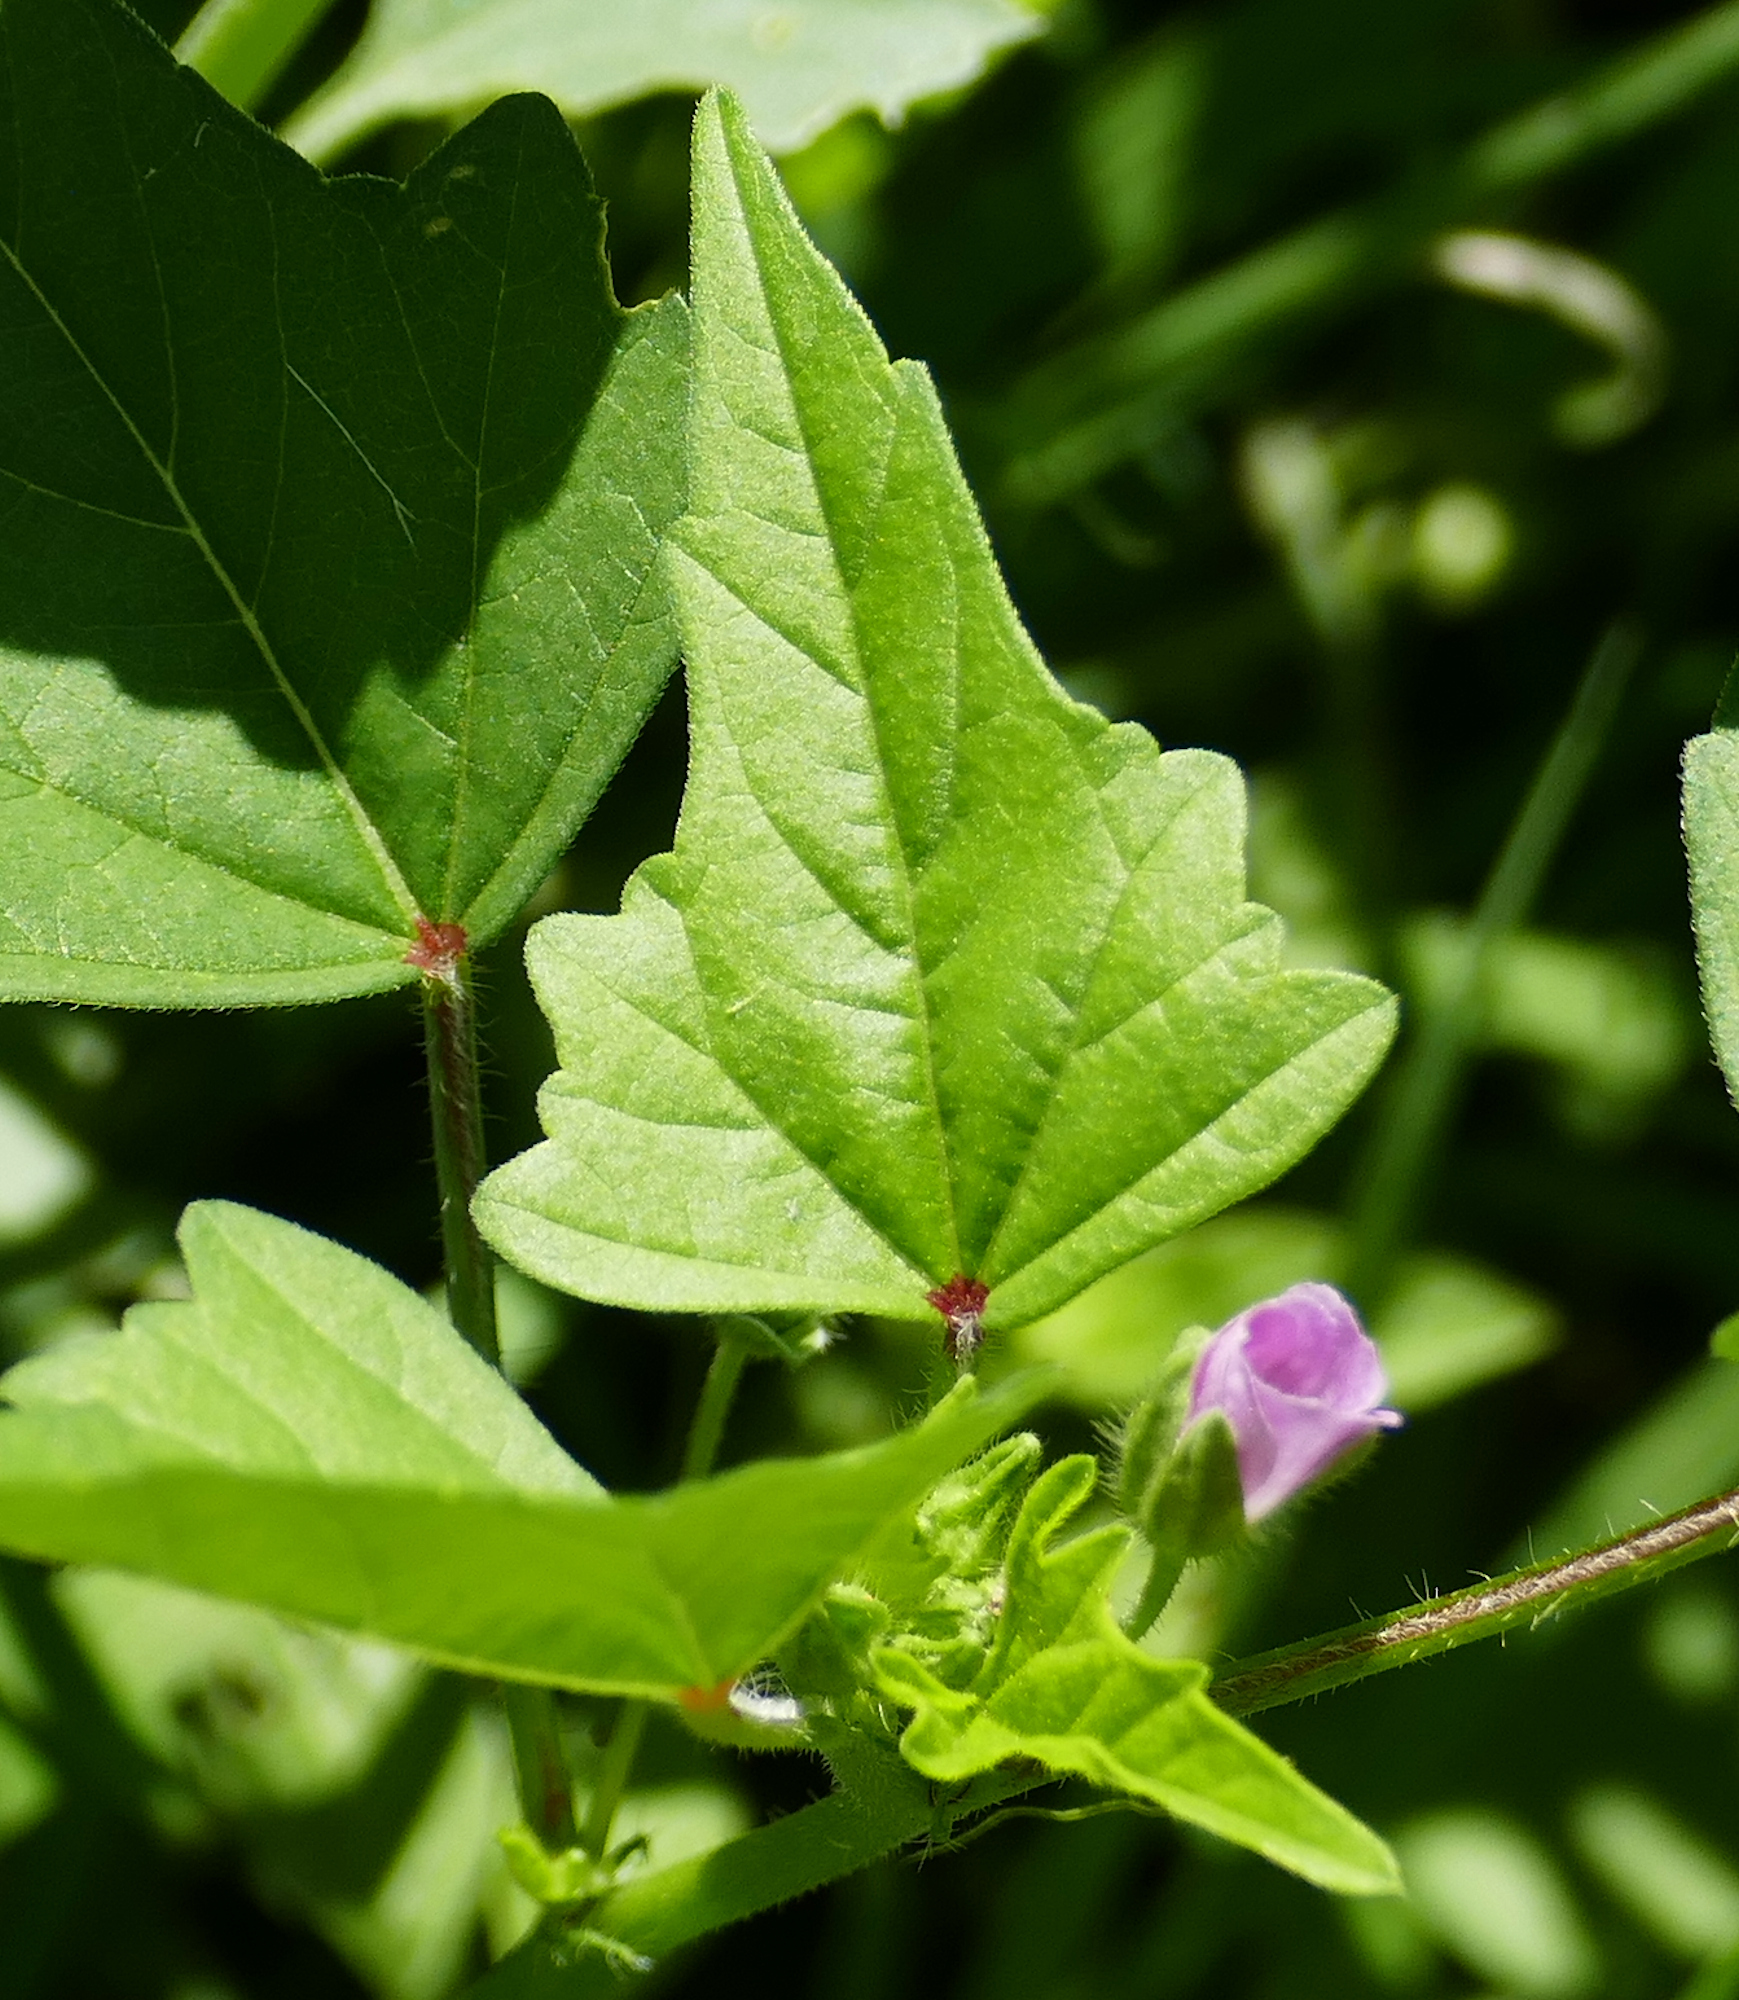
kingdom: Plantae
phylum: Tracheophyta
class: Magnoliopsida
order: Malvales
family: Malvaceae
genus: Anoda
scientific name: Anoda cristata
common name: Spurred anoda
